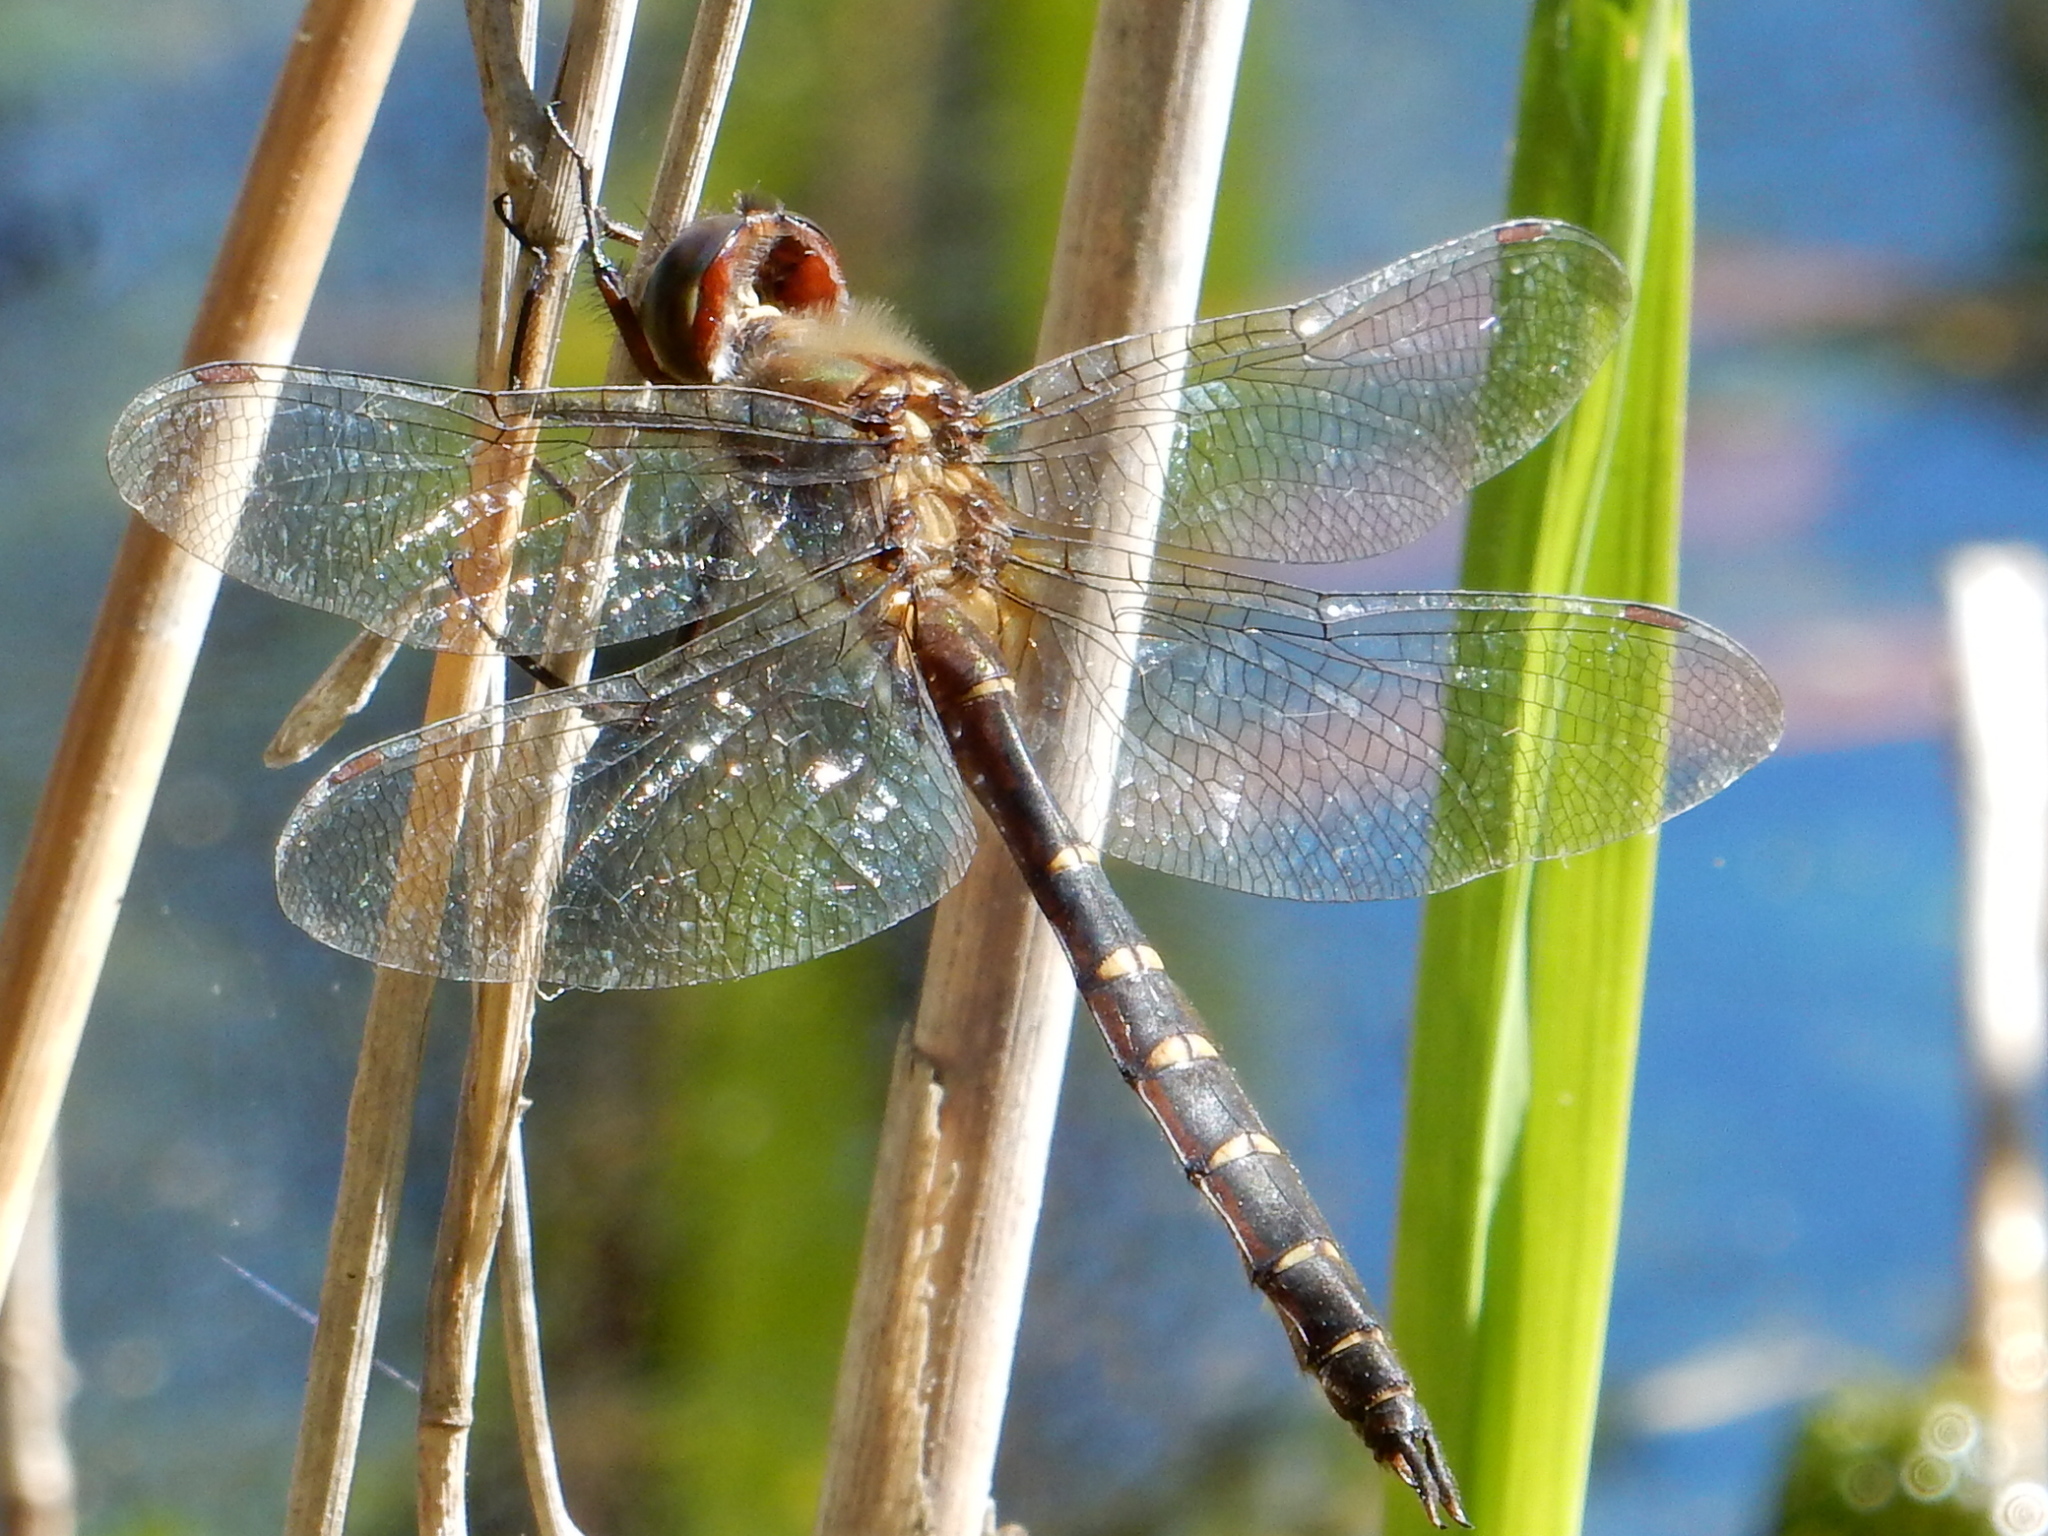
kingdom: Animalia
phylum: Arthropoda
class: Insecta
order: Odonata
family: Corduliidae
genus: Procordulia
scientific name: Procordulia smithii
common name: Ranger dragonfly
